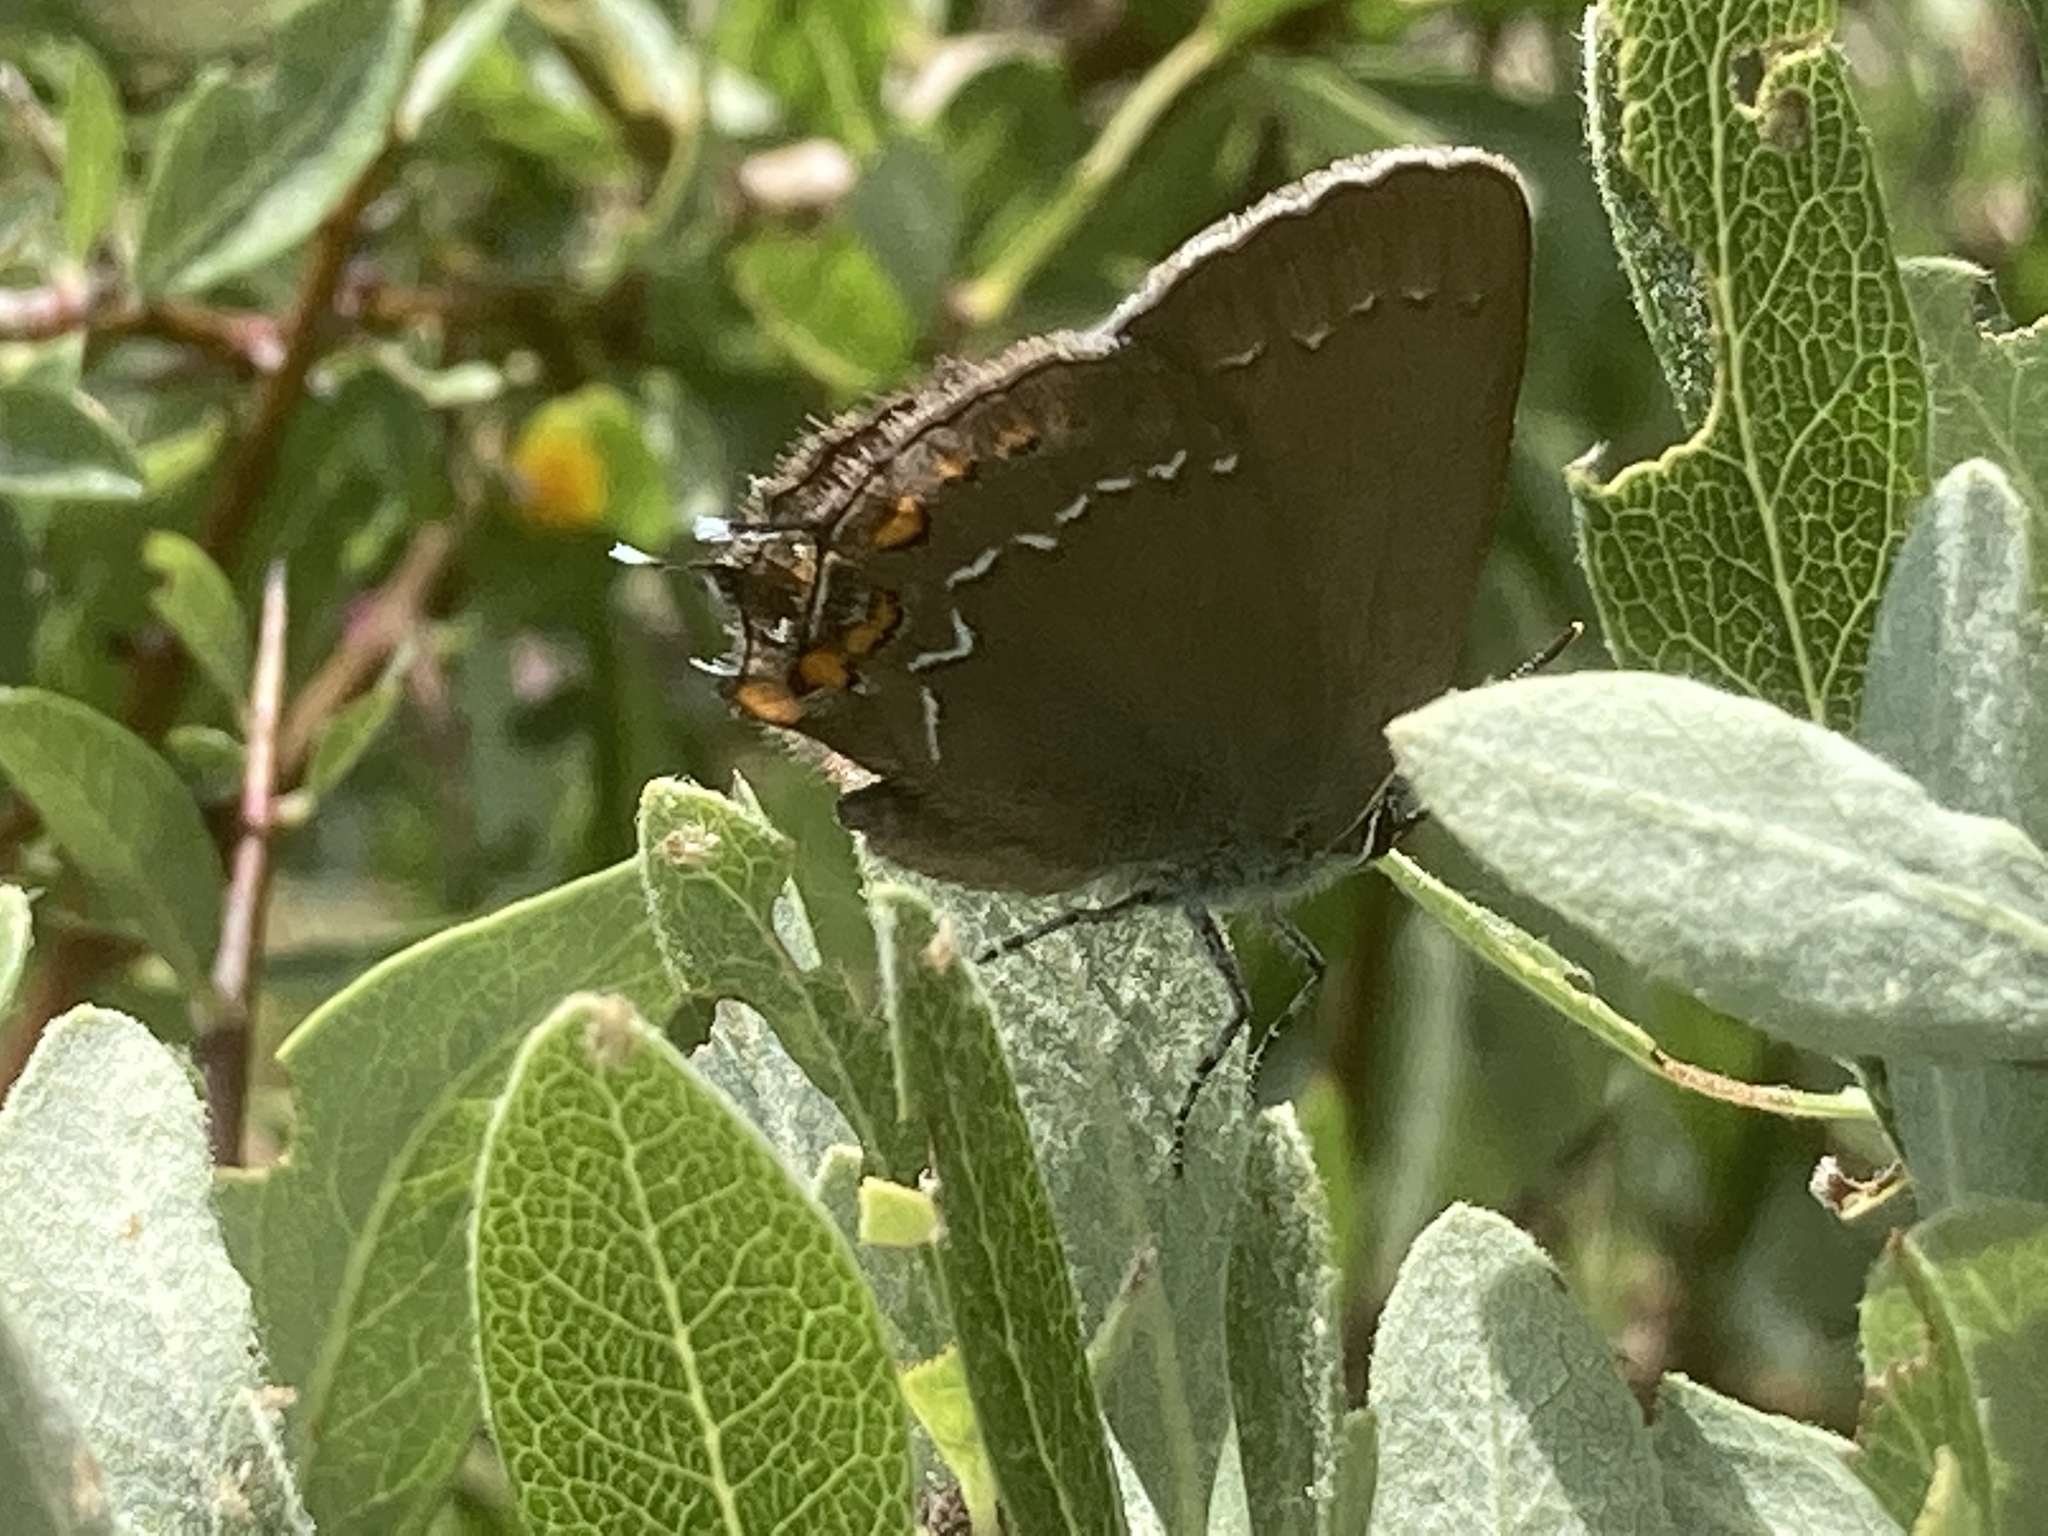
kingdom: Animalia
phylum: Arthropoda
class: Insecta
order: Lepidoptera
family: Lycaenidae
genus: Nordmannia
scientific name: Nordmannia ilicis
